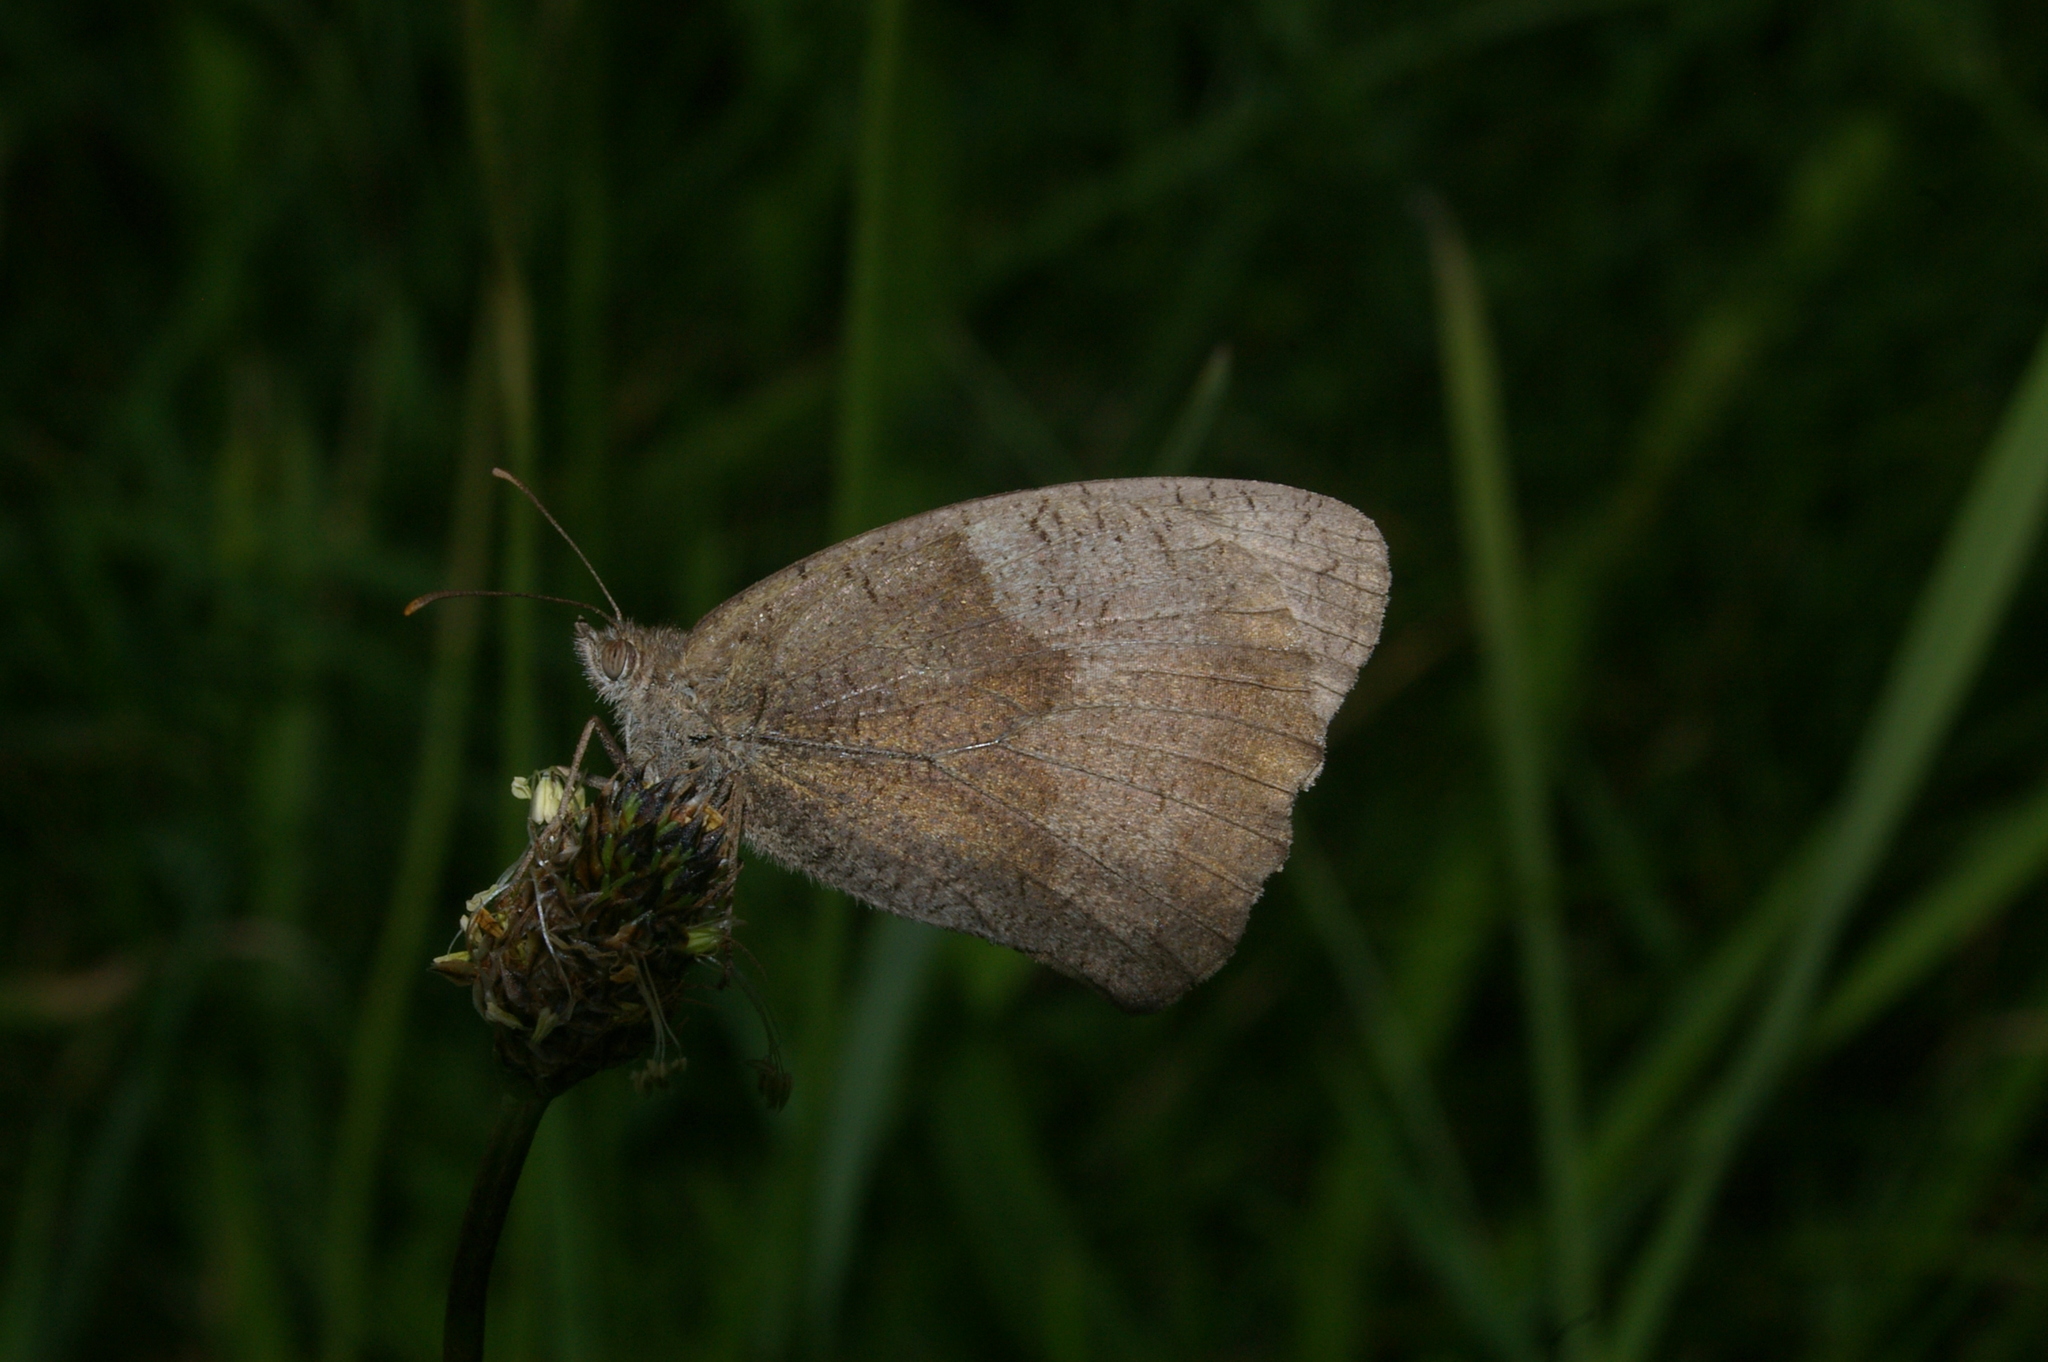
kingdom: Animalia
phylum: Arthropoda
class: Insecta
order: Lepidoptera
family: Nymphalidae
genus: Maniola
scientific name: Maniola jurtina
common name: Meadow brown
